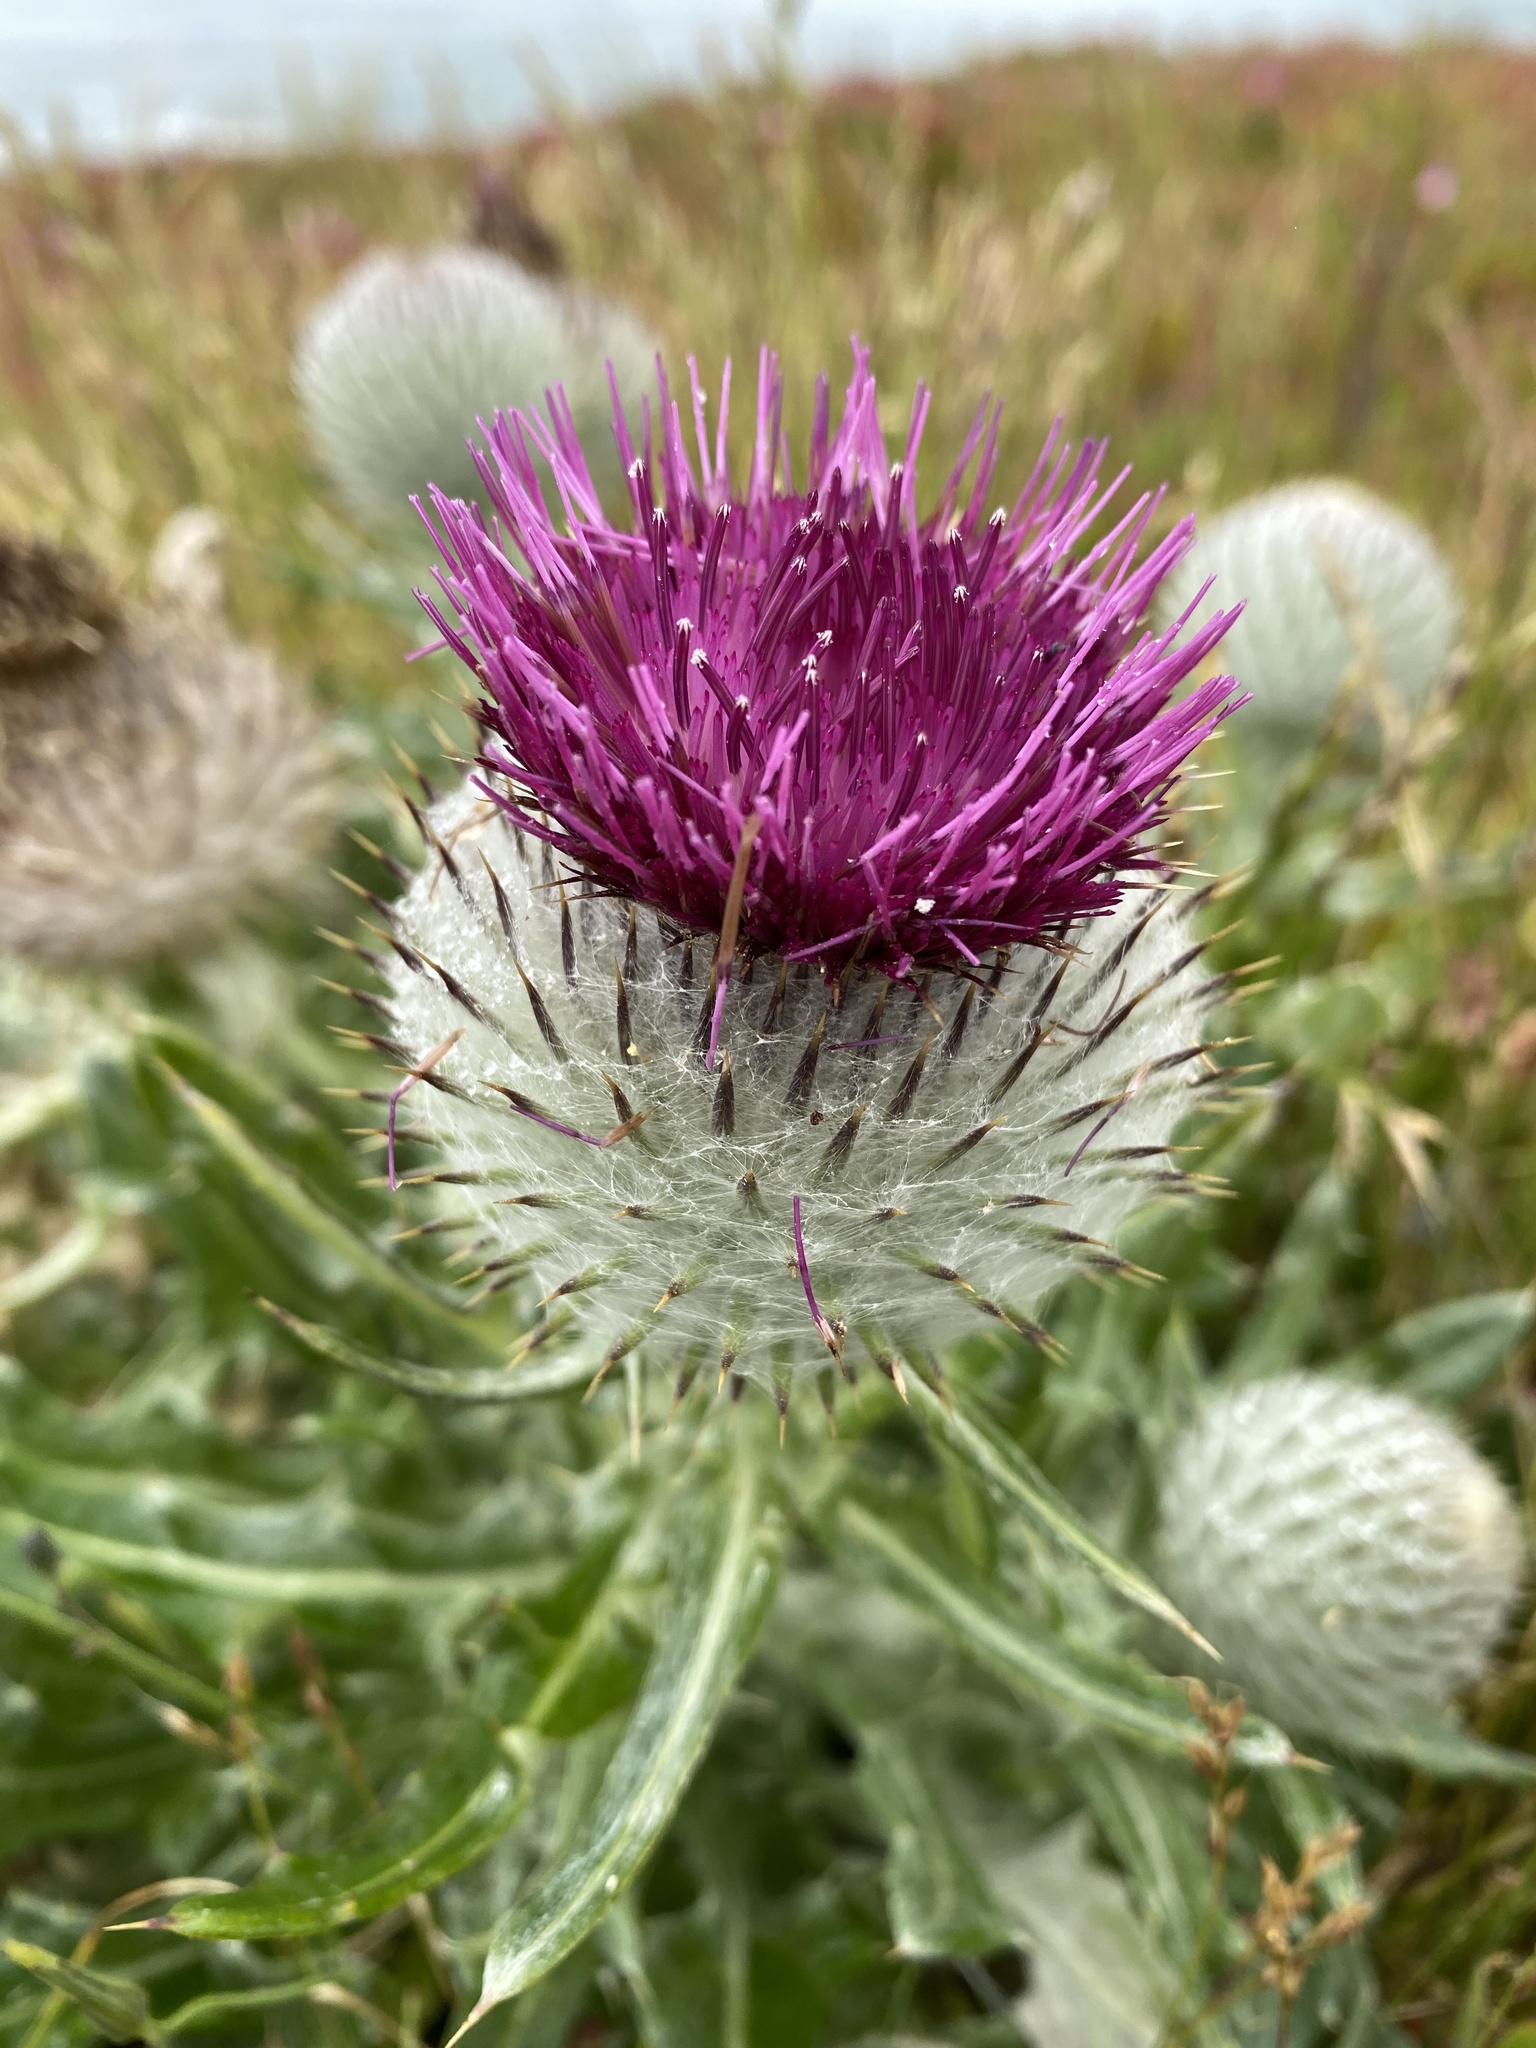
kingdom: Plantae
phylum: Tracheophyta
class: Magnoliopsida
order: Asterales
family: Asteraceae
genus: Cirsium
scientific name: Cirsium occidentale
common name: Western thistle
